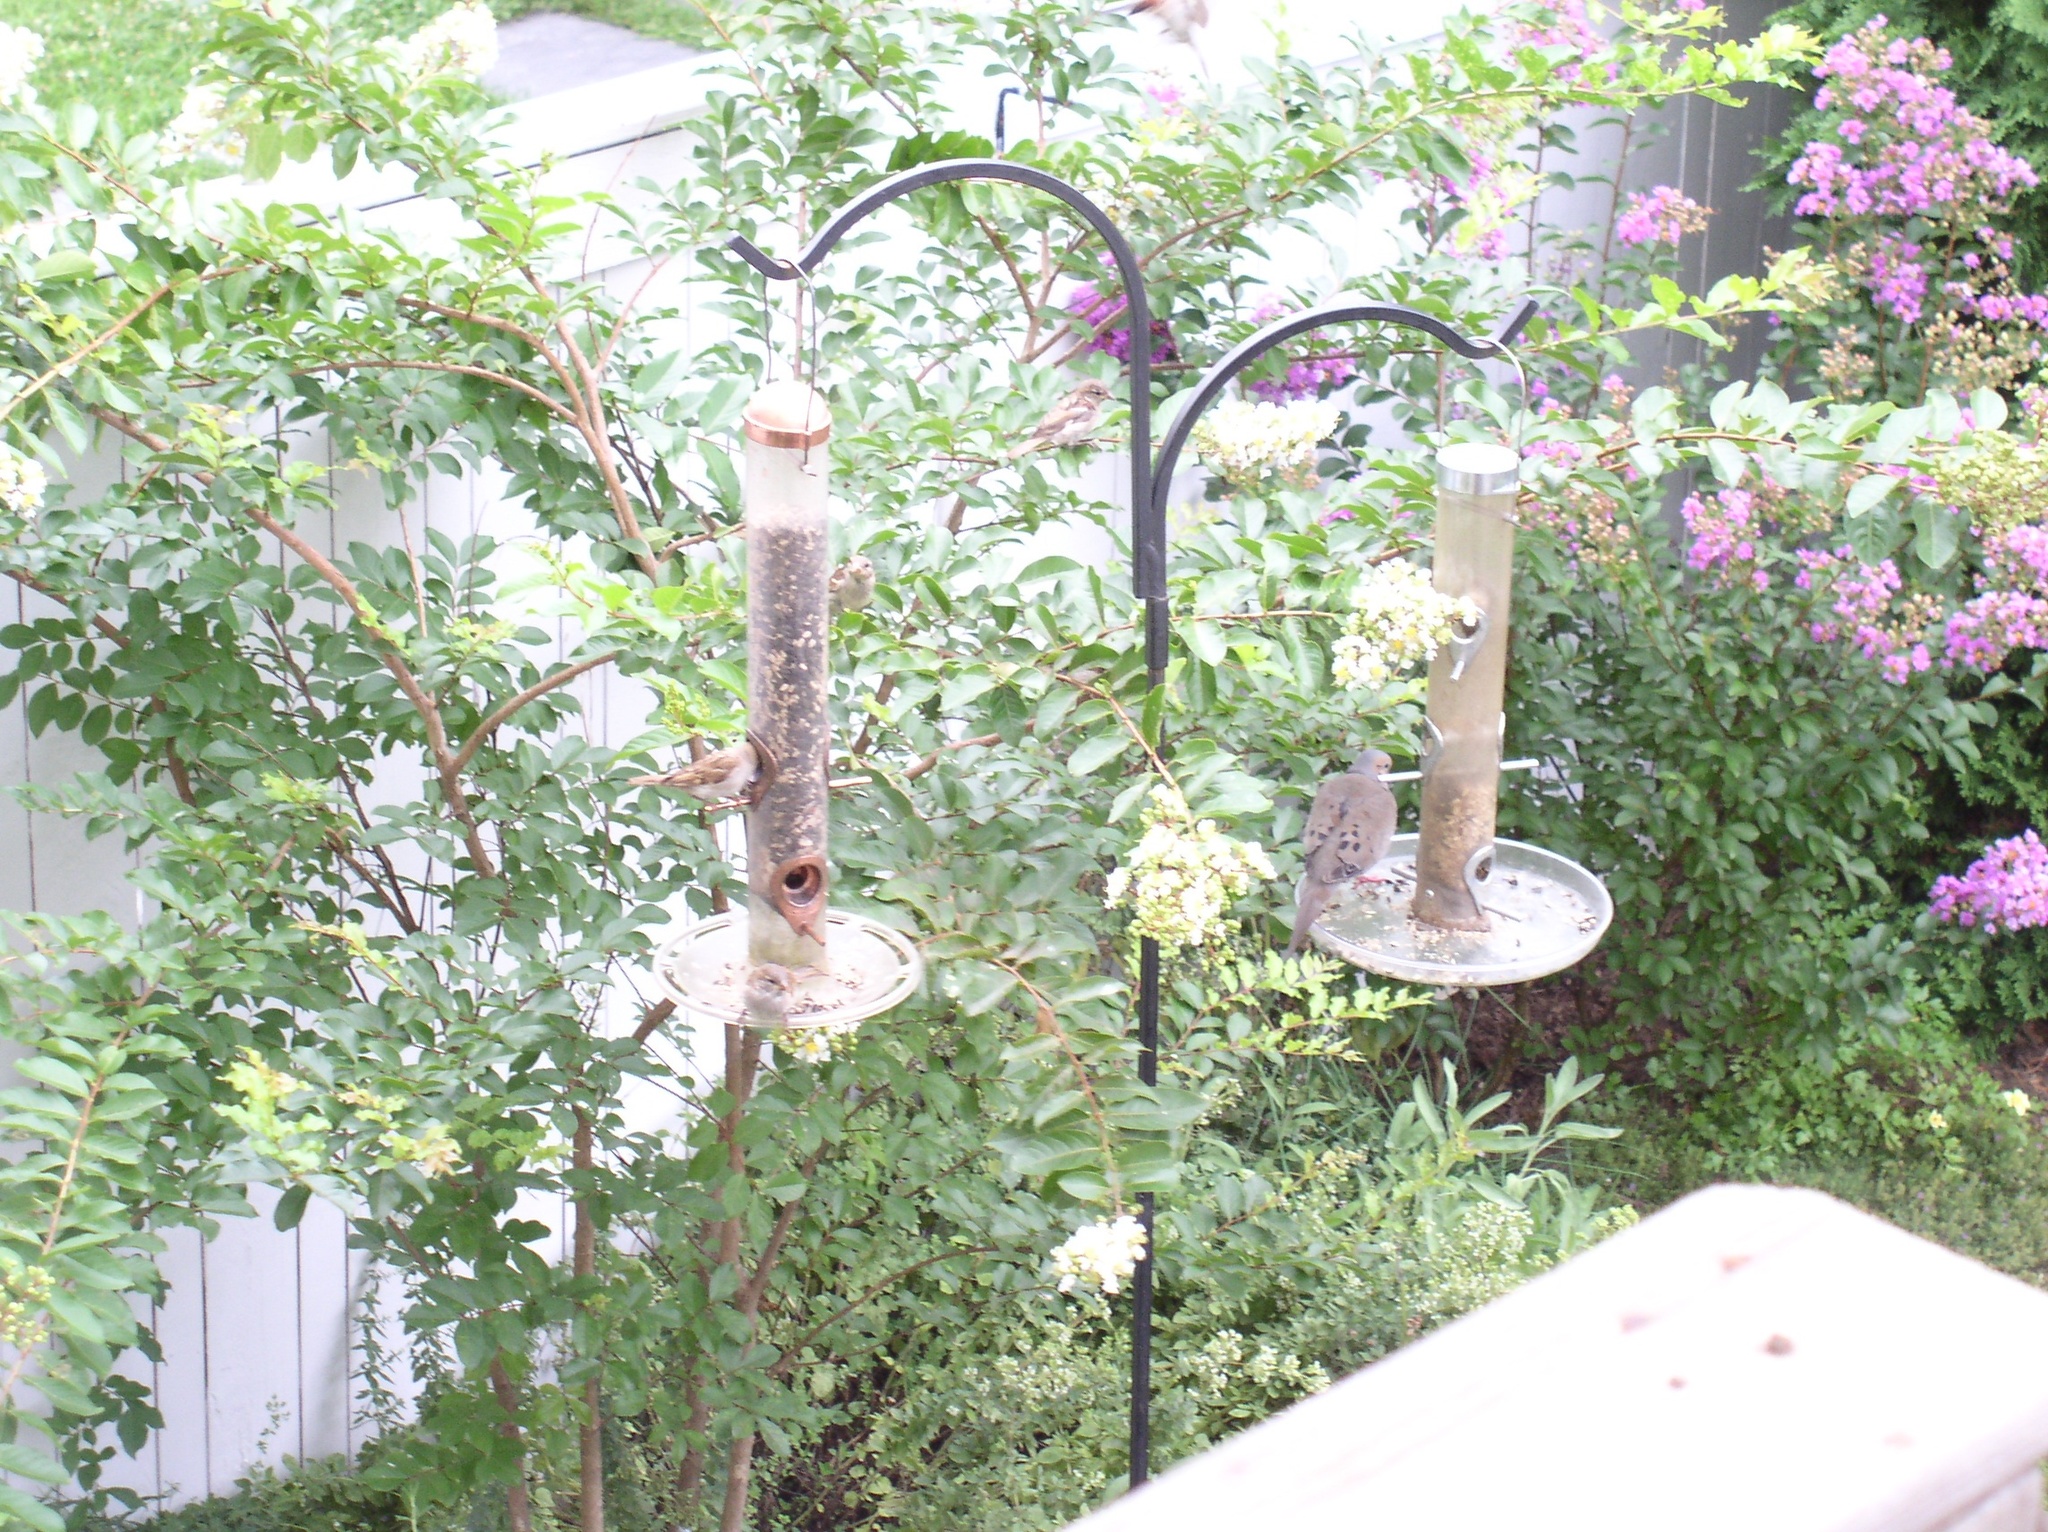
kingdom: Animalia
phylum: Chordata
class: Aves
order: Passeriformes
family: Passeridae
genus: Passer
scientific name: Passer domesticus
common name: House sparrow
